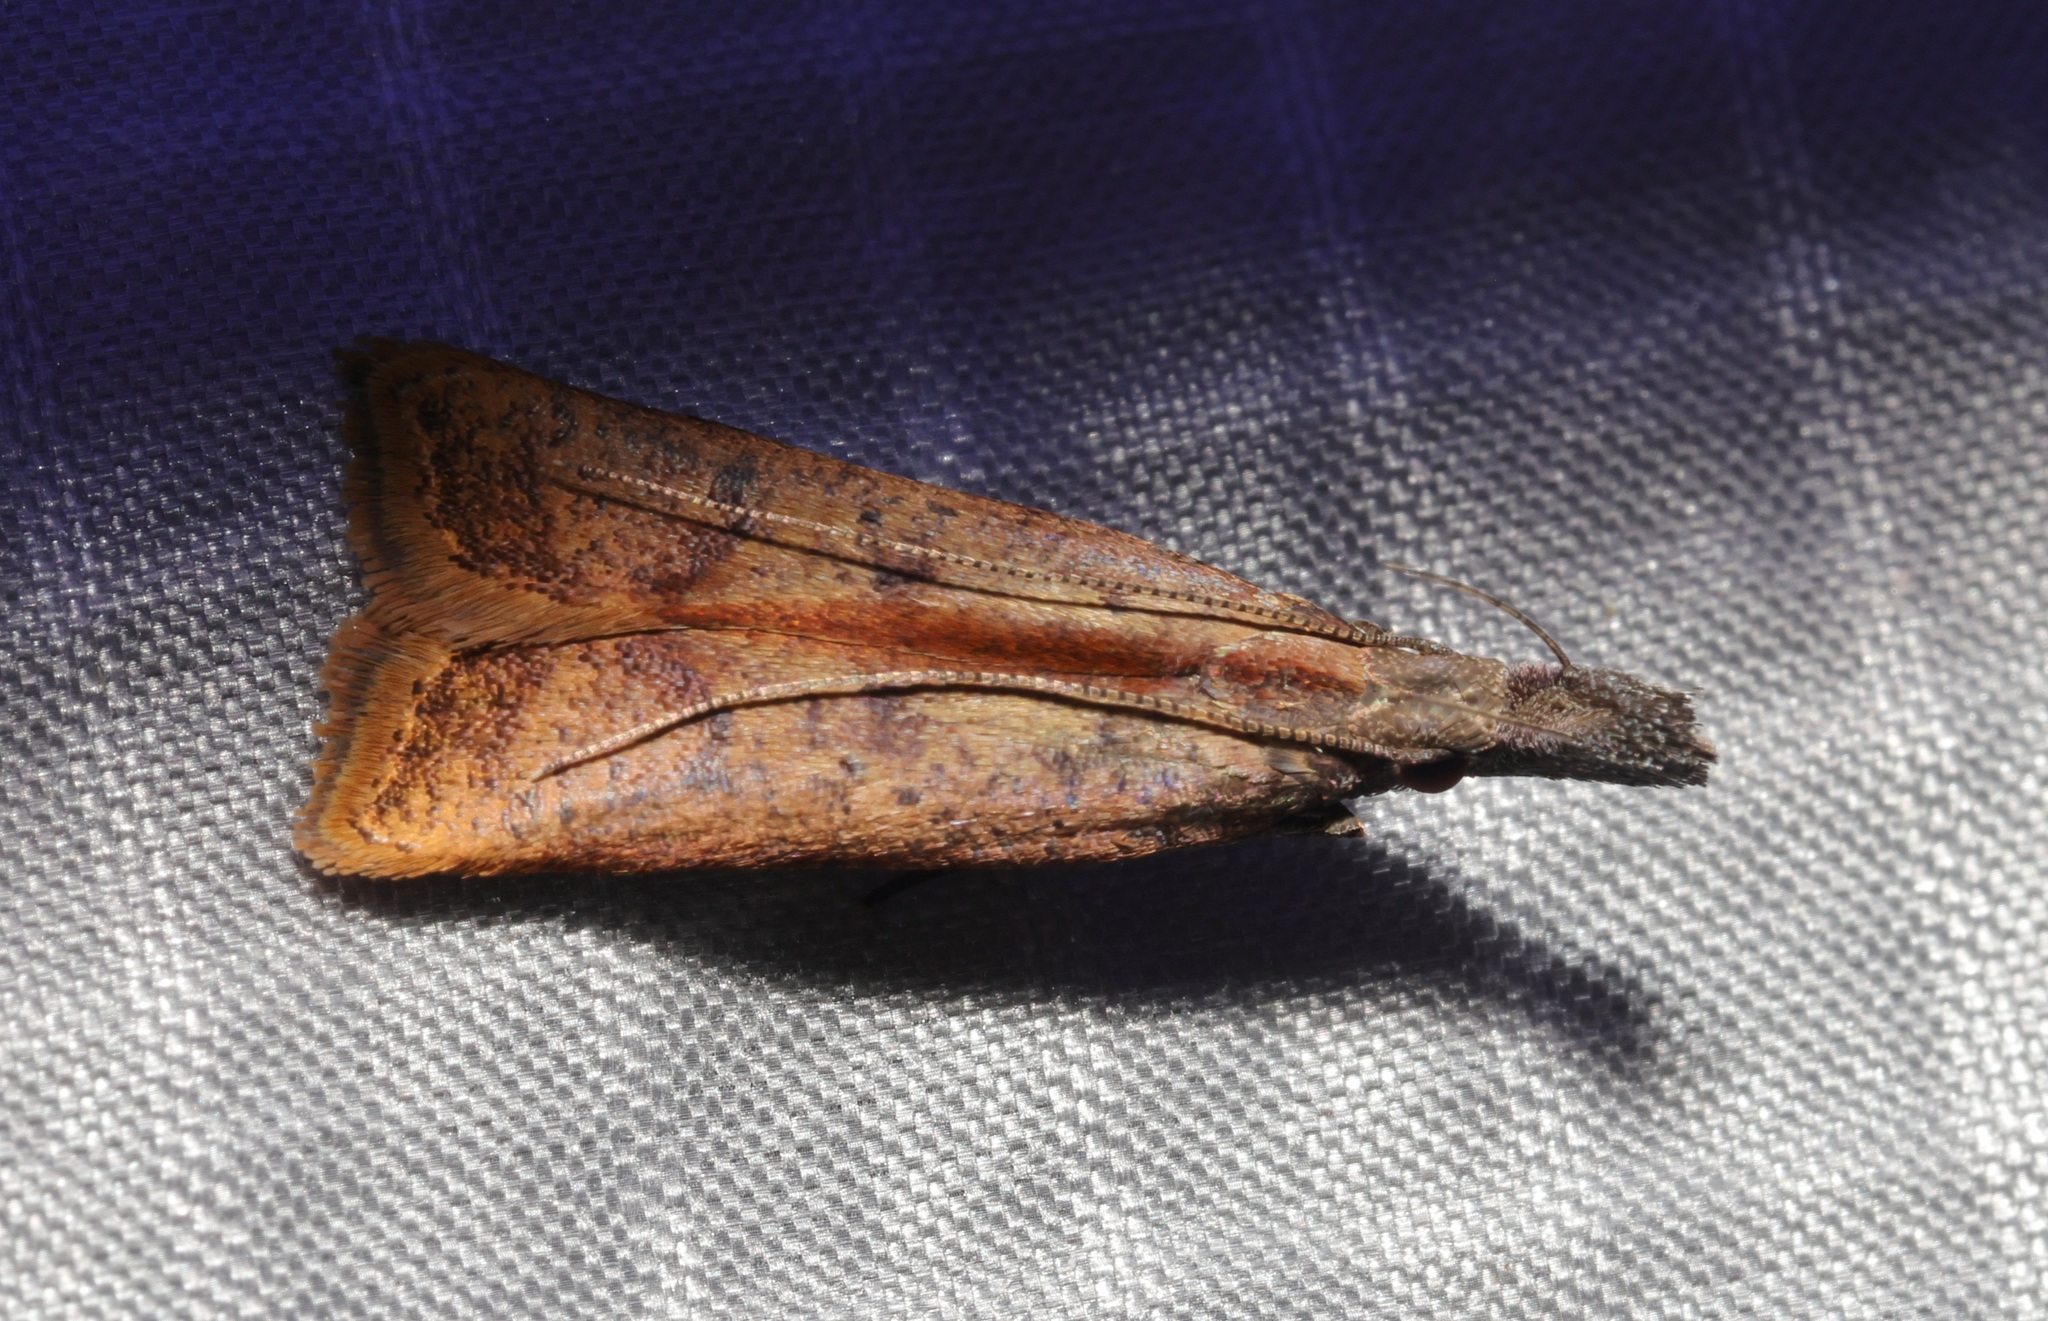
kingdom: Animalia
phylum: Arthropoda
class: Insecta
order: Lepidoptera
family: Gelechiidae
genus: Dichomeris
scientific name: Dichomeris zonata
